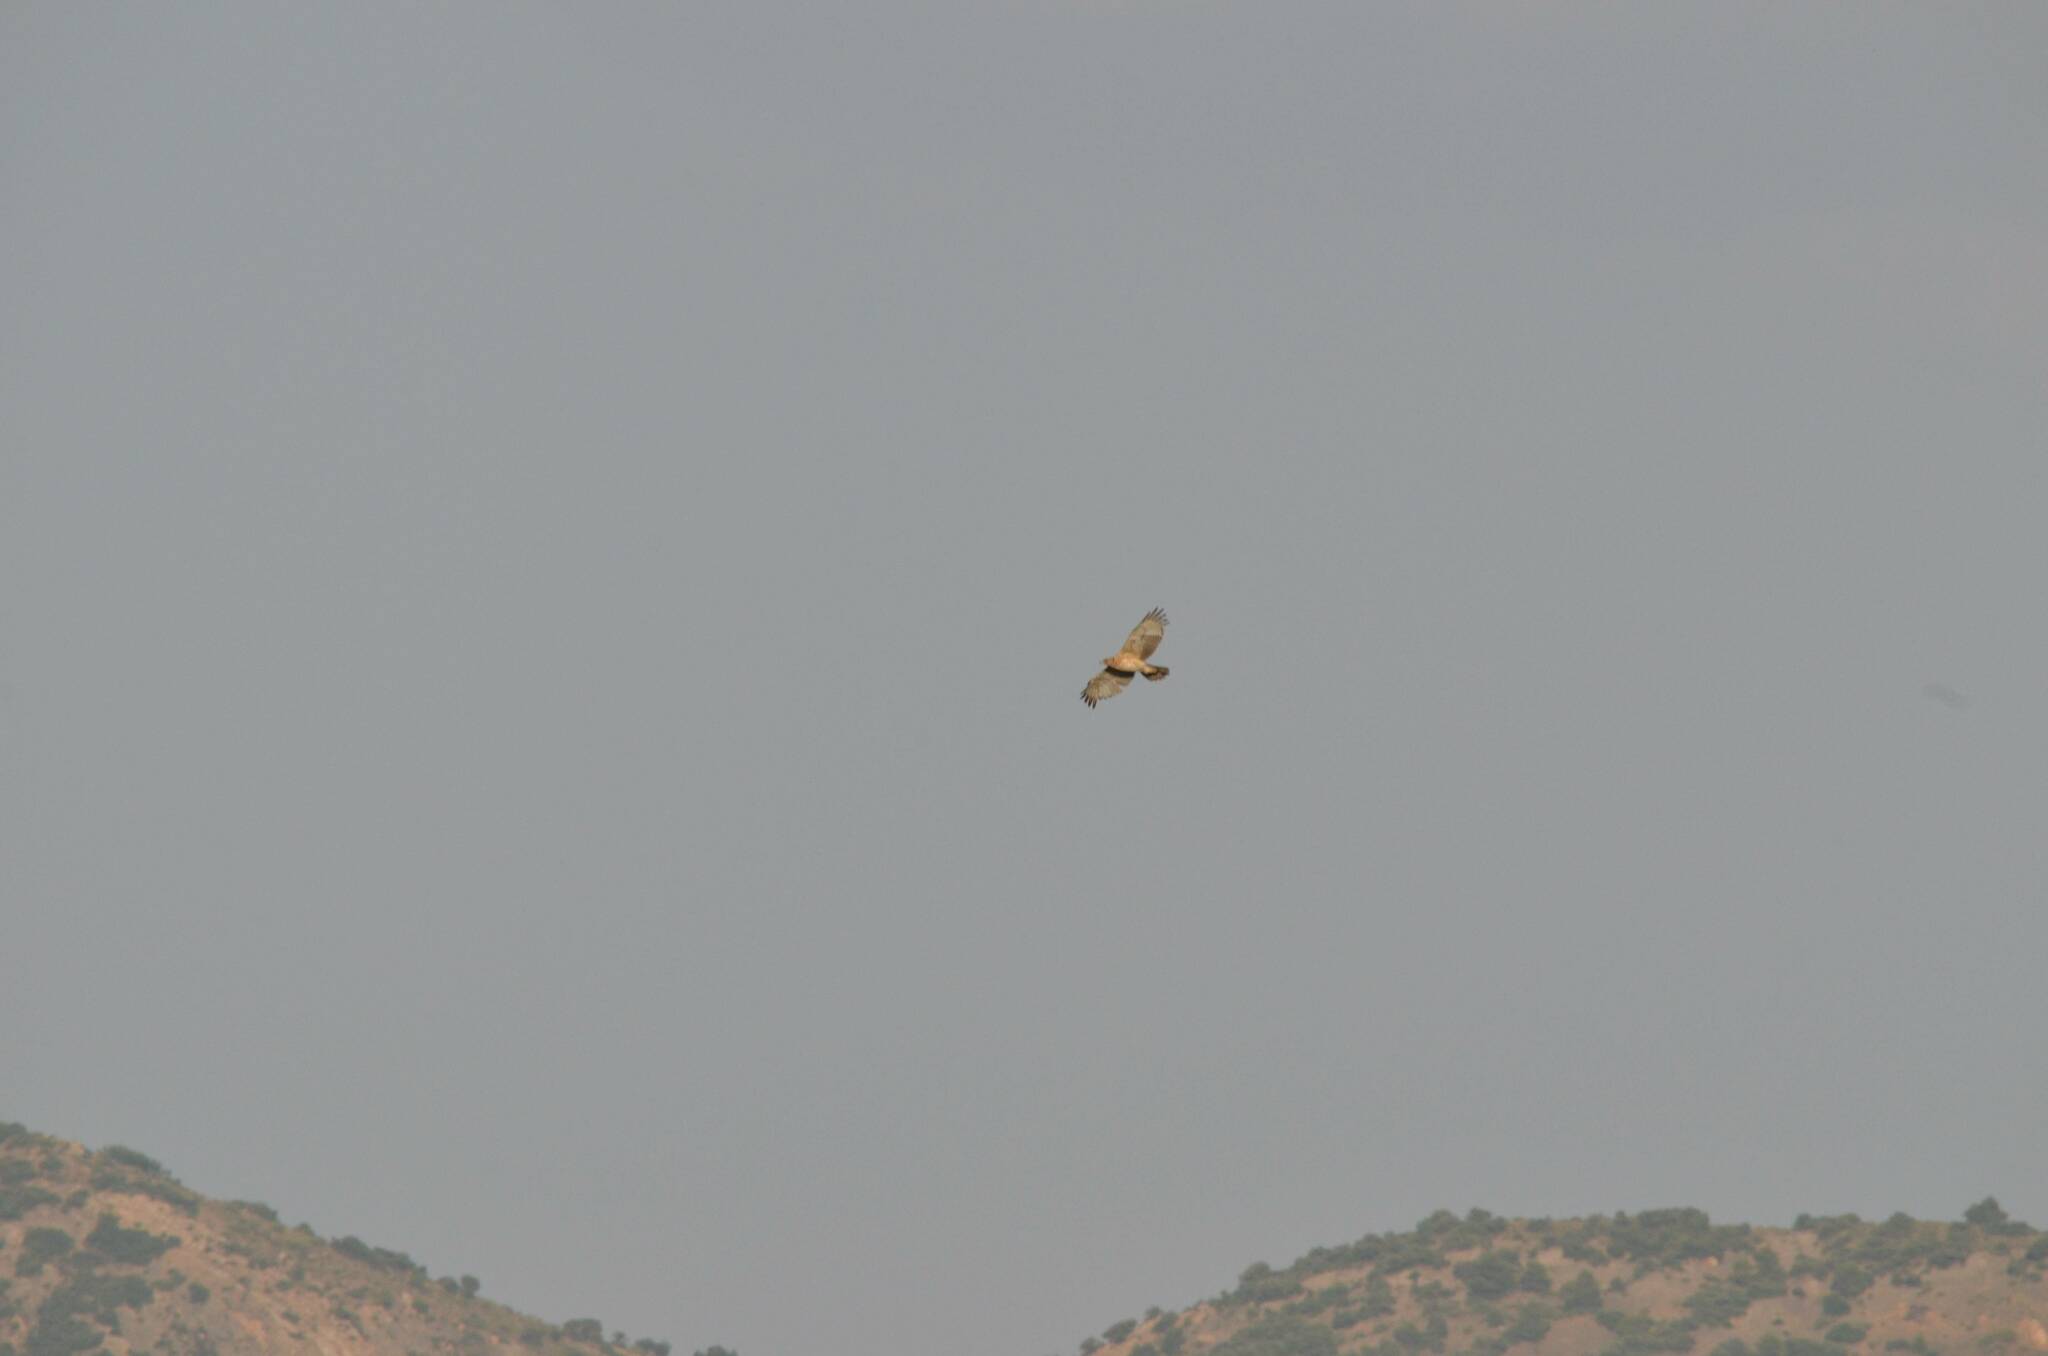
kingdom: Animalia
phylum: Chordata
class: Aves
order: Accipitriformes
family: Accipitridae
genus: Aquila
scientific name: Aquila fasciata
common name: Bonelli's eagle
